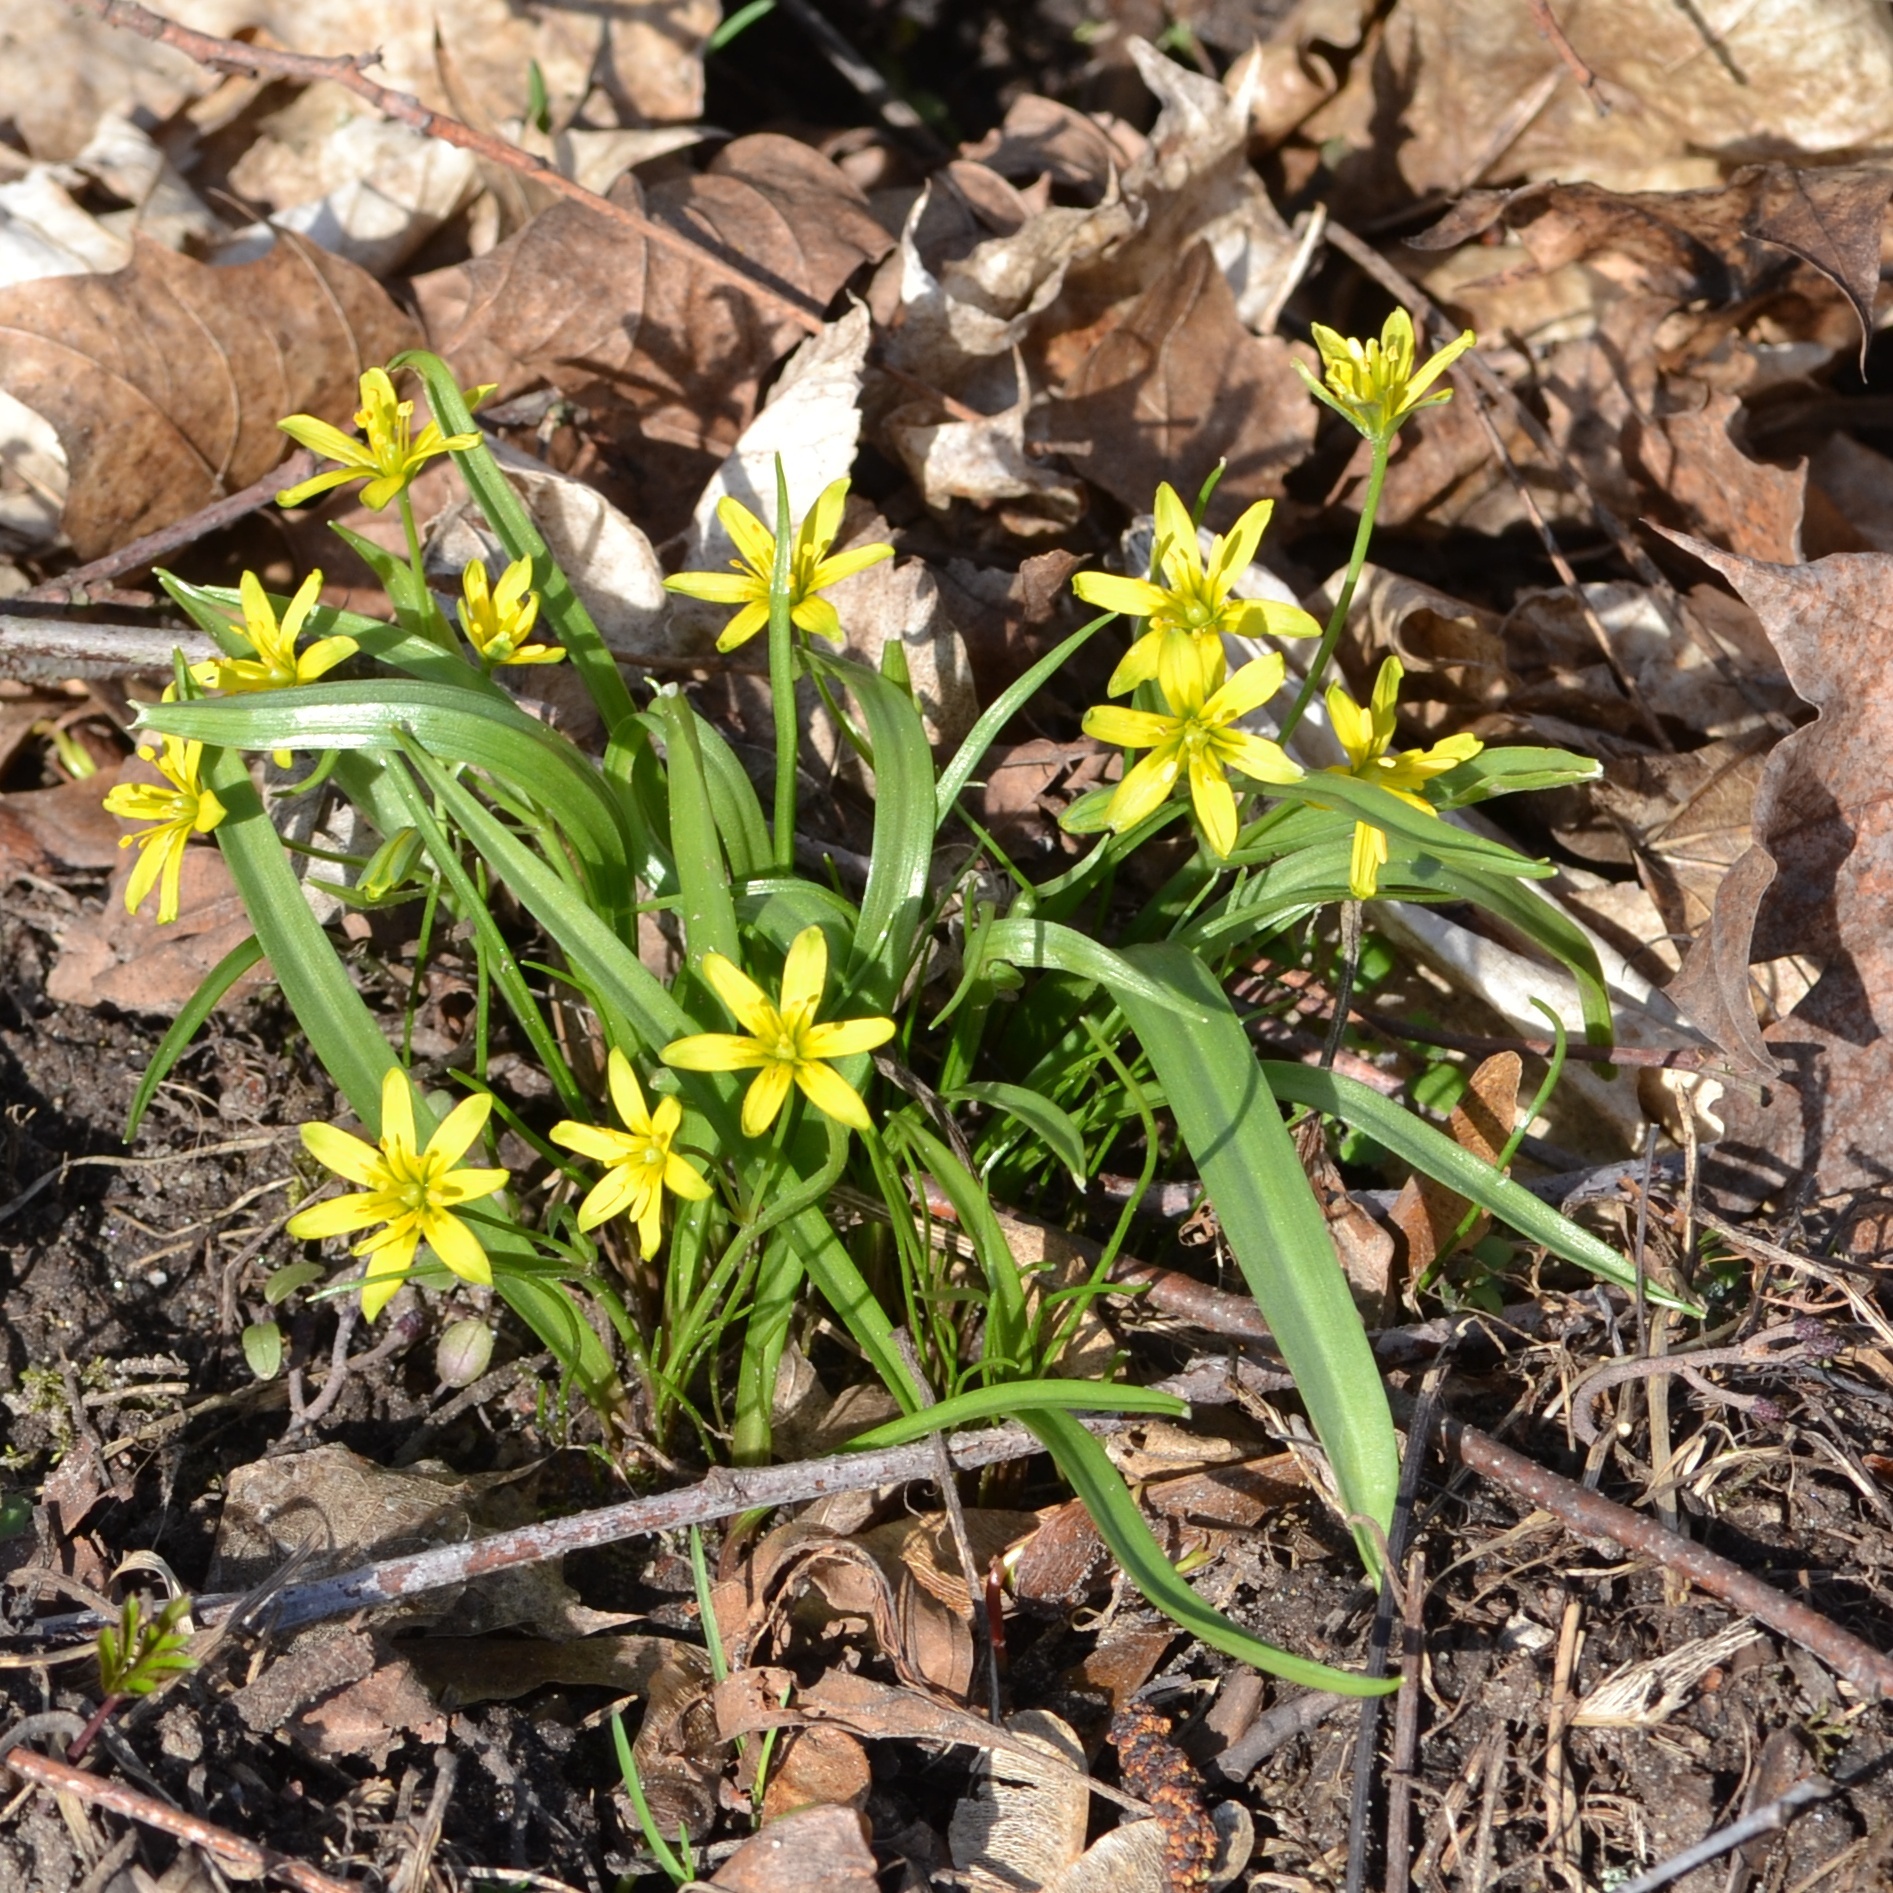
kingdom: Plantae
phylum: Tracheophyta
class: Liliopsida
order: Liliales
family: Liliaceae
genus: Gagea
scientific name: Gagea lutea
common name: Yellow star-of-bethlehem
